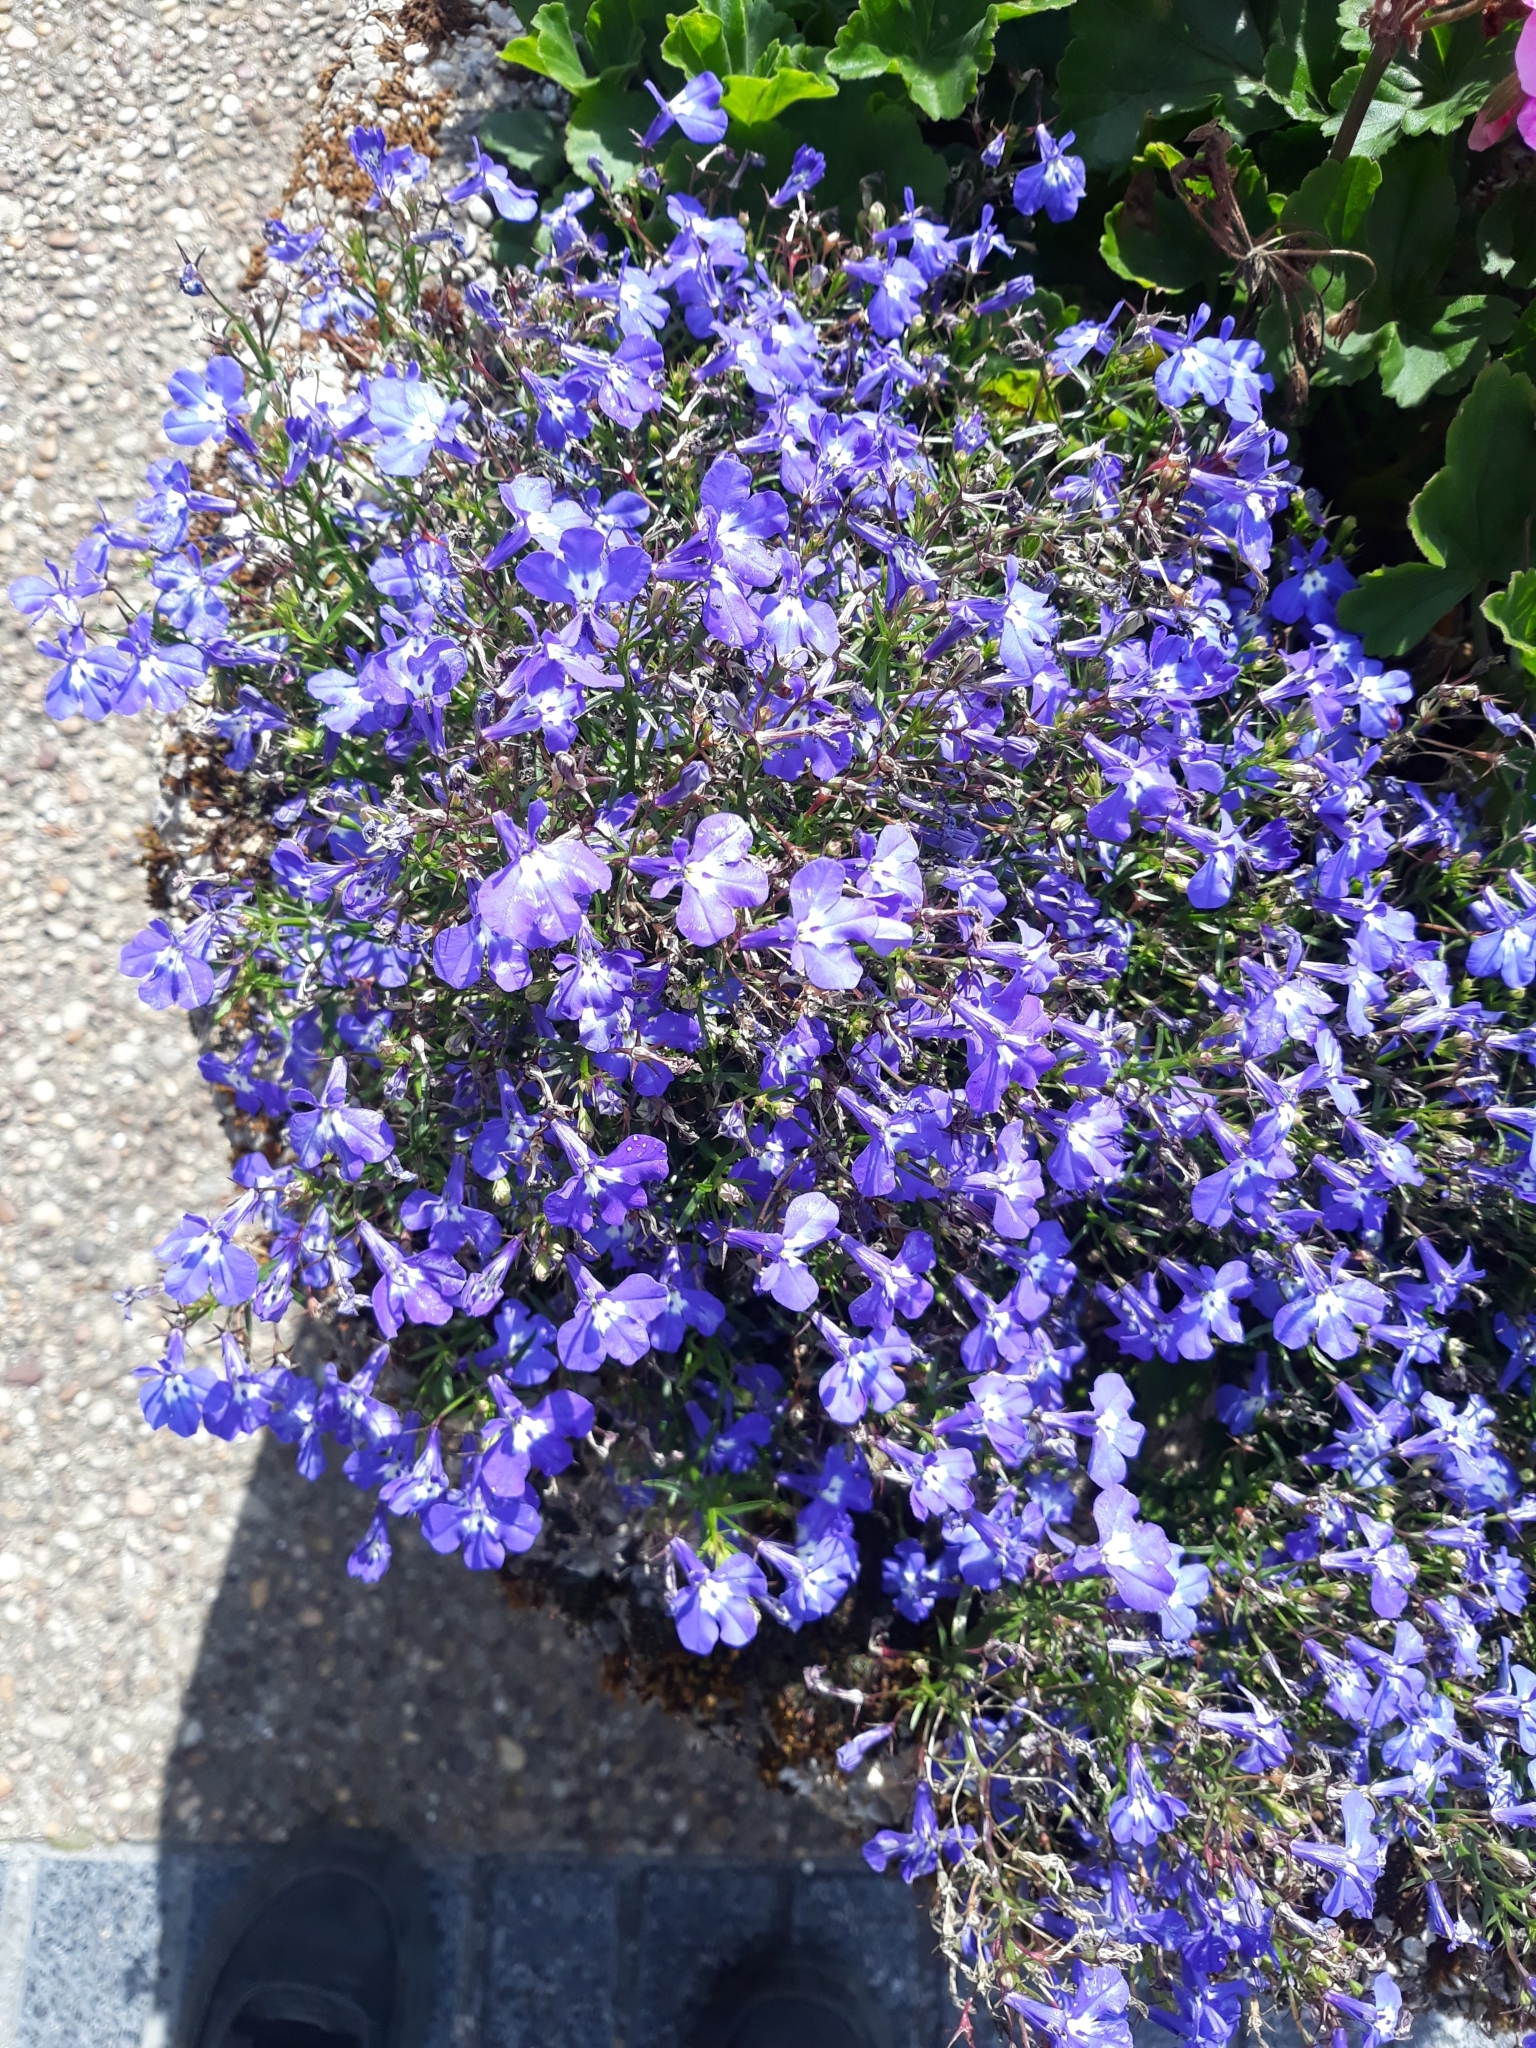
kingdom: Plantae
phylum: Tracheophyta
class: Magnoliopsida
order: Asterales
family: Campanulaceae
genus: Lobelia
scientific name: Lobelia erinus
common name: Edging lobelia
